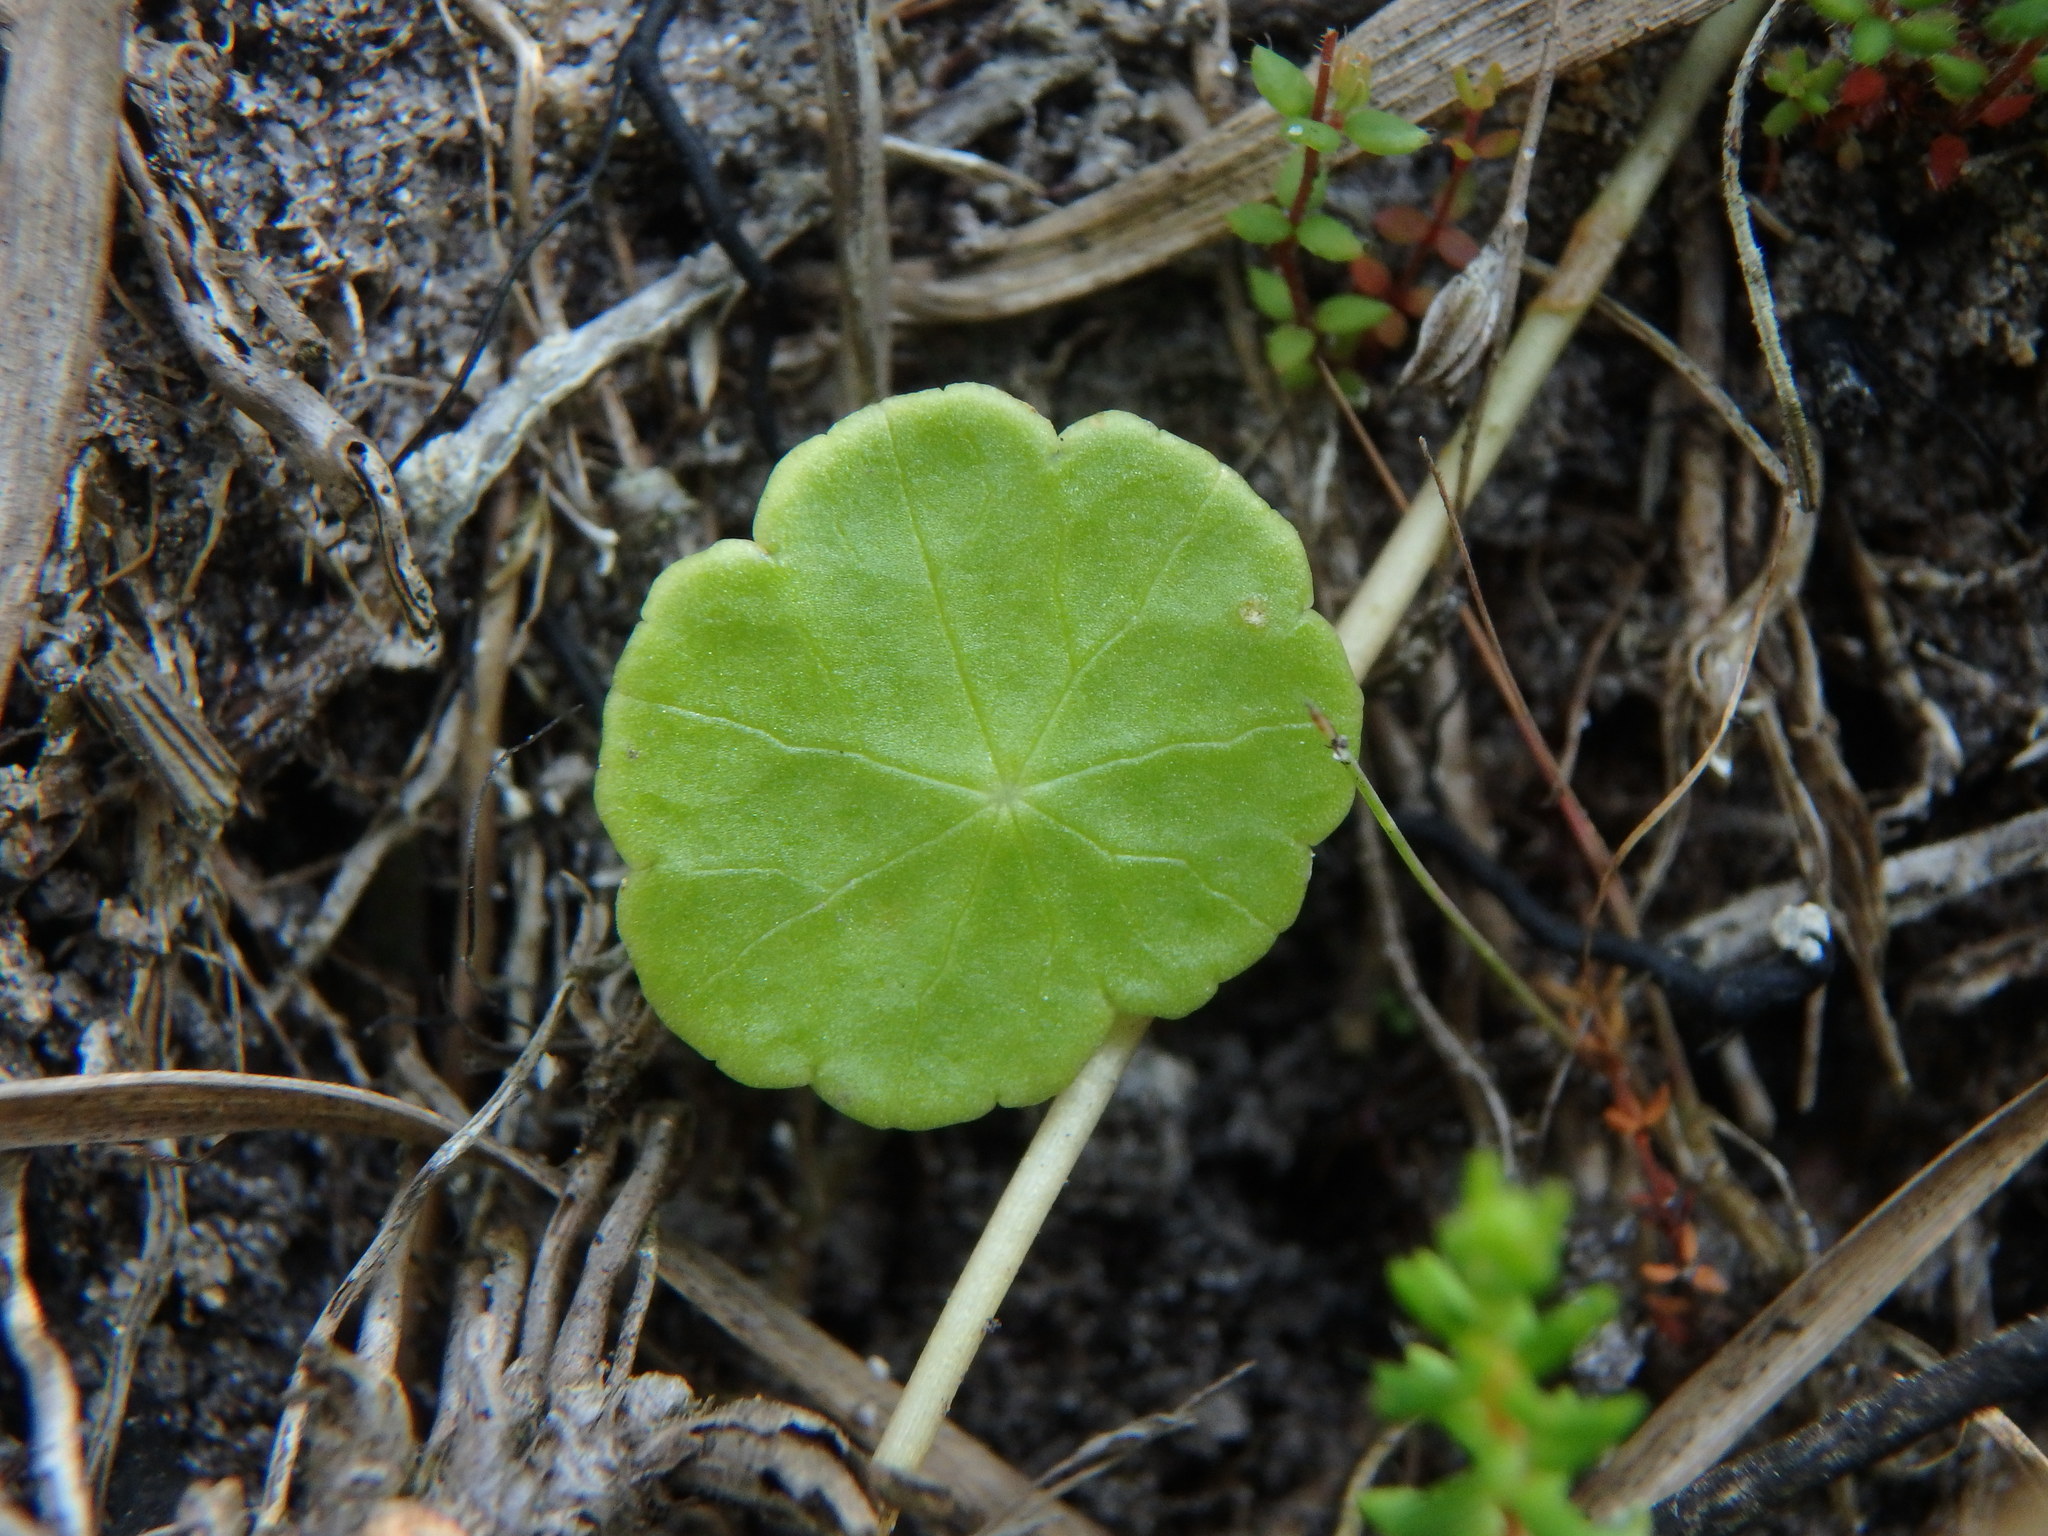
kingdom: Plantae
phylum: Tracheophyta
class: Magnoliopsida
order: Apiales
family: Araliaceae
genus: Hydrocotyle
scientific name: Hydrocotyle vulgaris
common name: Marsh pennywort
